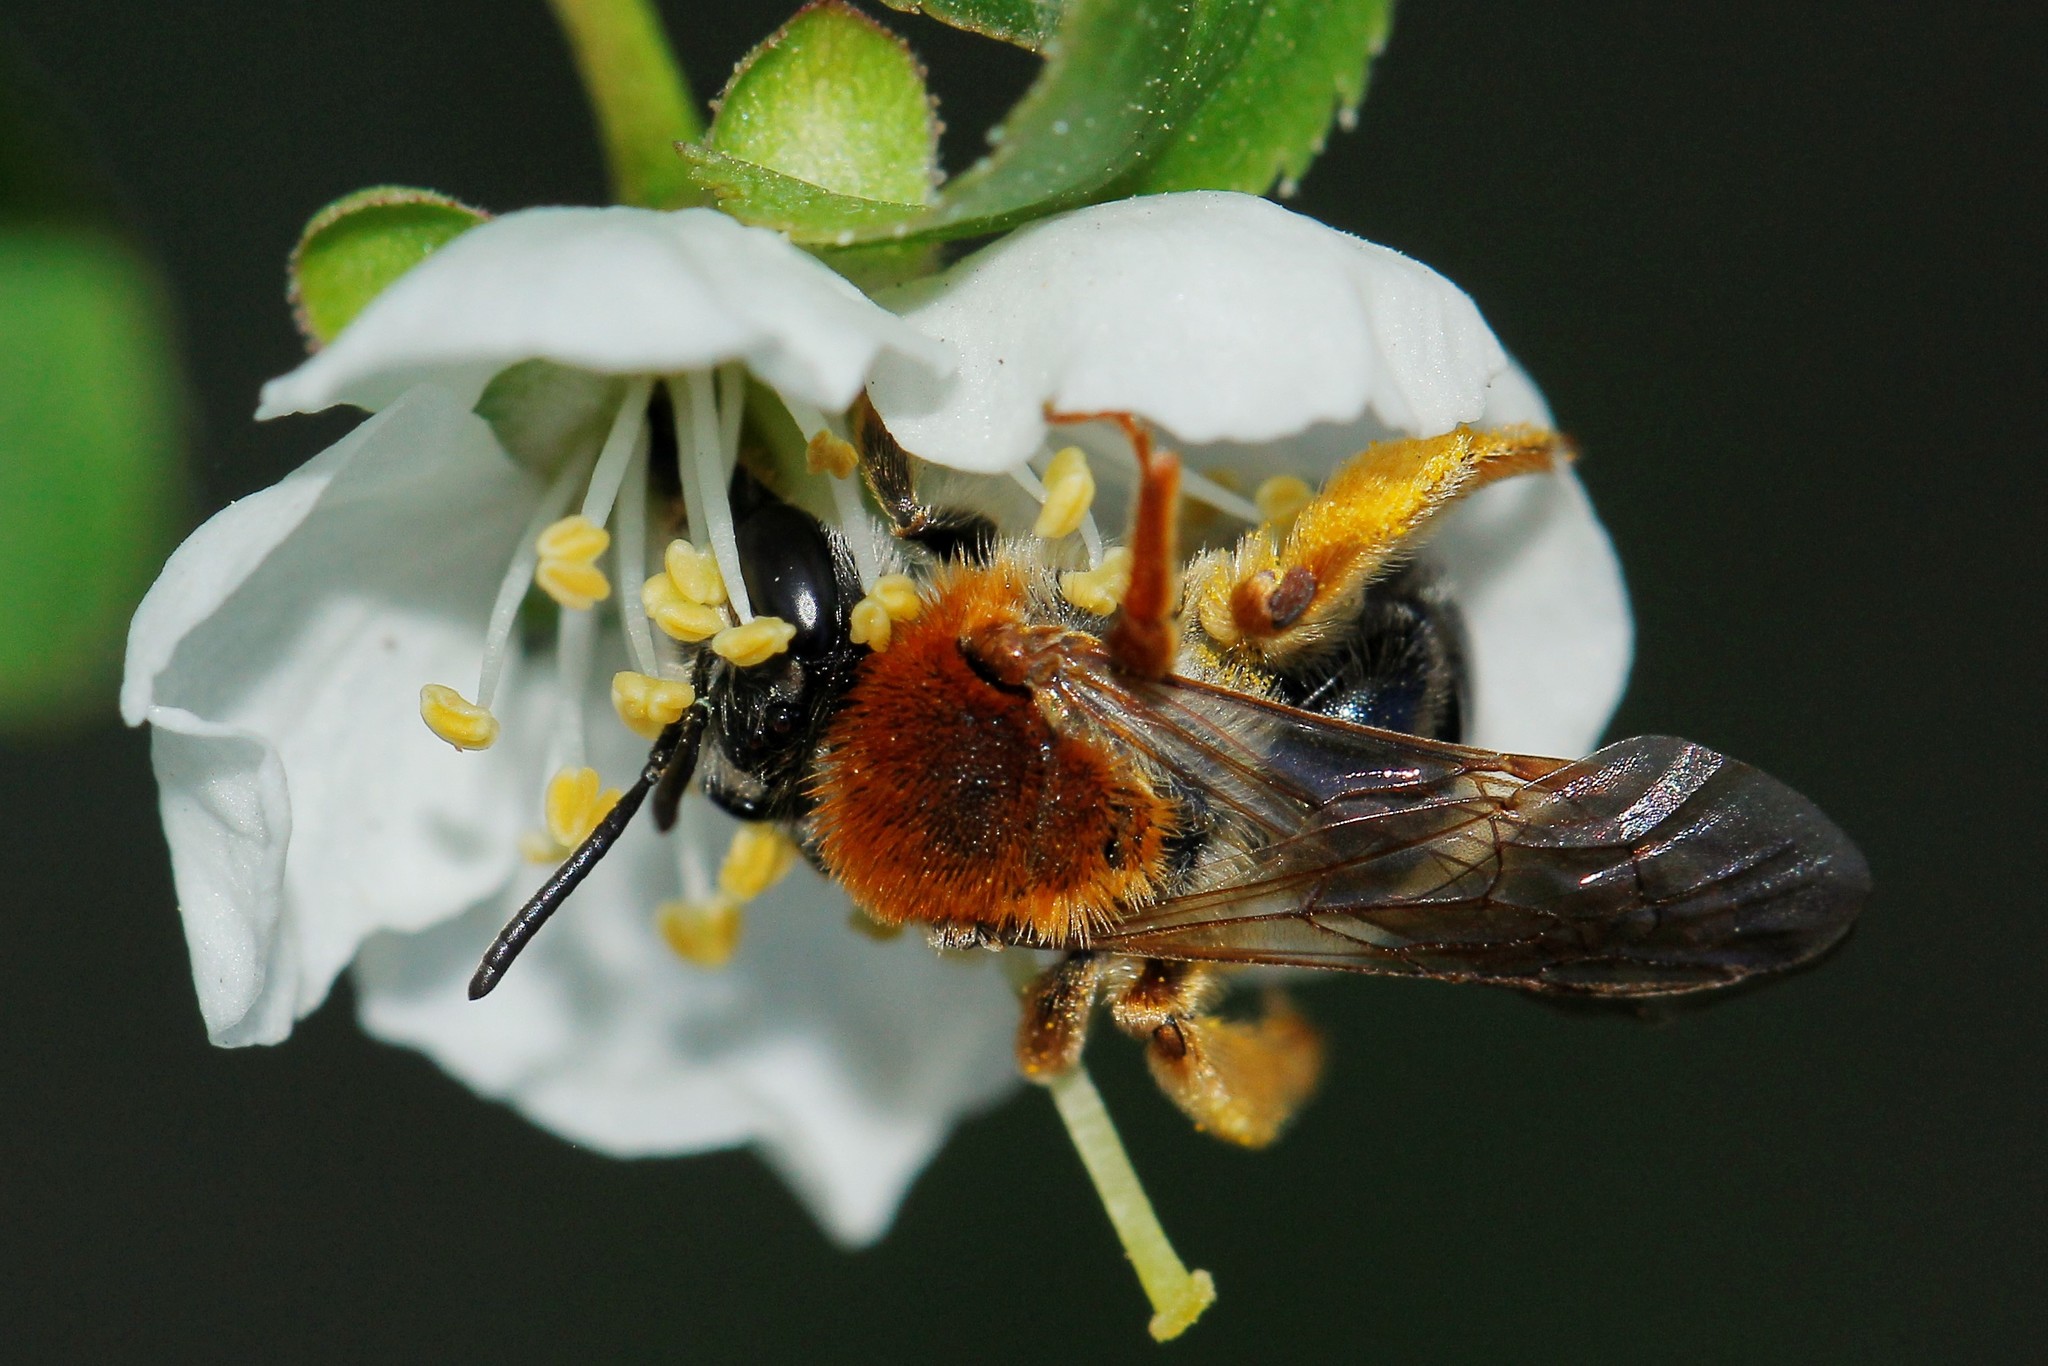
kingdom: Animalia
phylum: Arthropoda
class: Insecta
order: Hymenoptera
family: Andrenidae
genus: Andrena
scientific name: Andrena haemorrhoa
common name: Early mining bee
